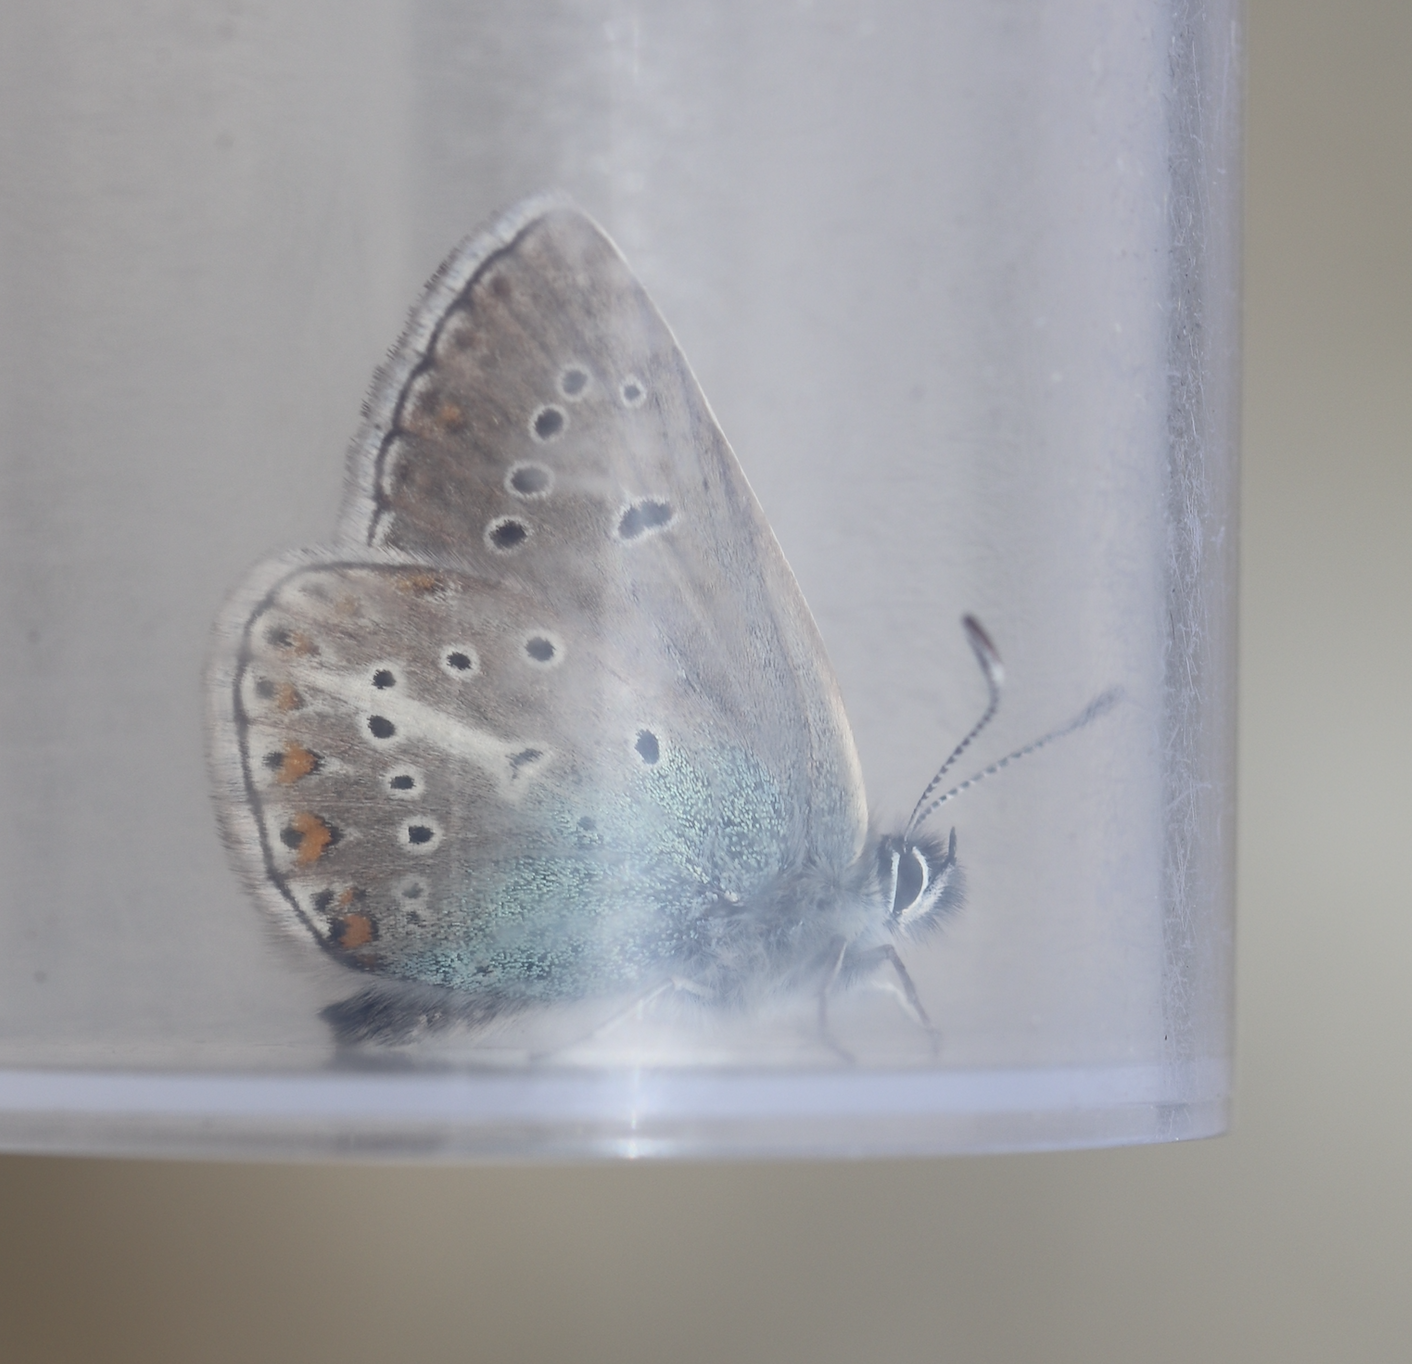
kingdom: Animalia
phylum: Arthropoda
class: Insecta
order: Lepidoptera
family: Lycaenidae
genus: Eumedonia
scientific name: Eumedonia eumedon
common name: Geranium argus
